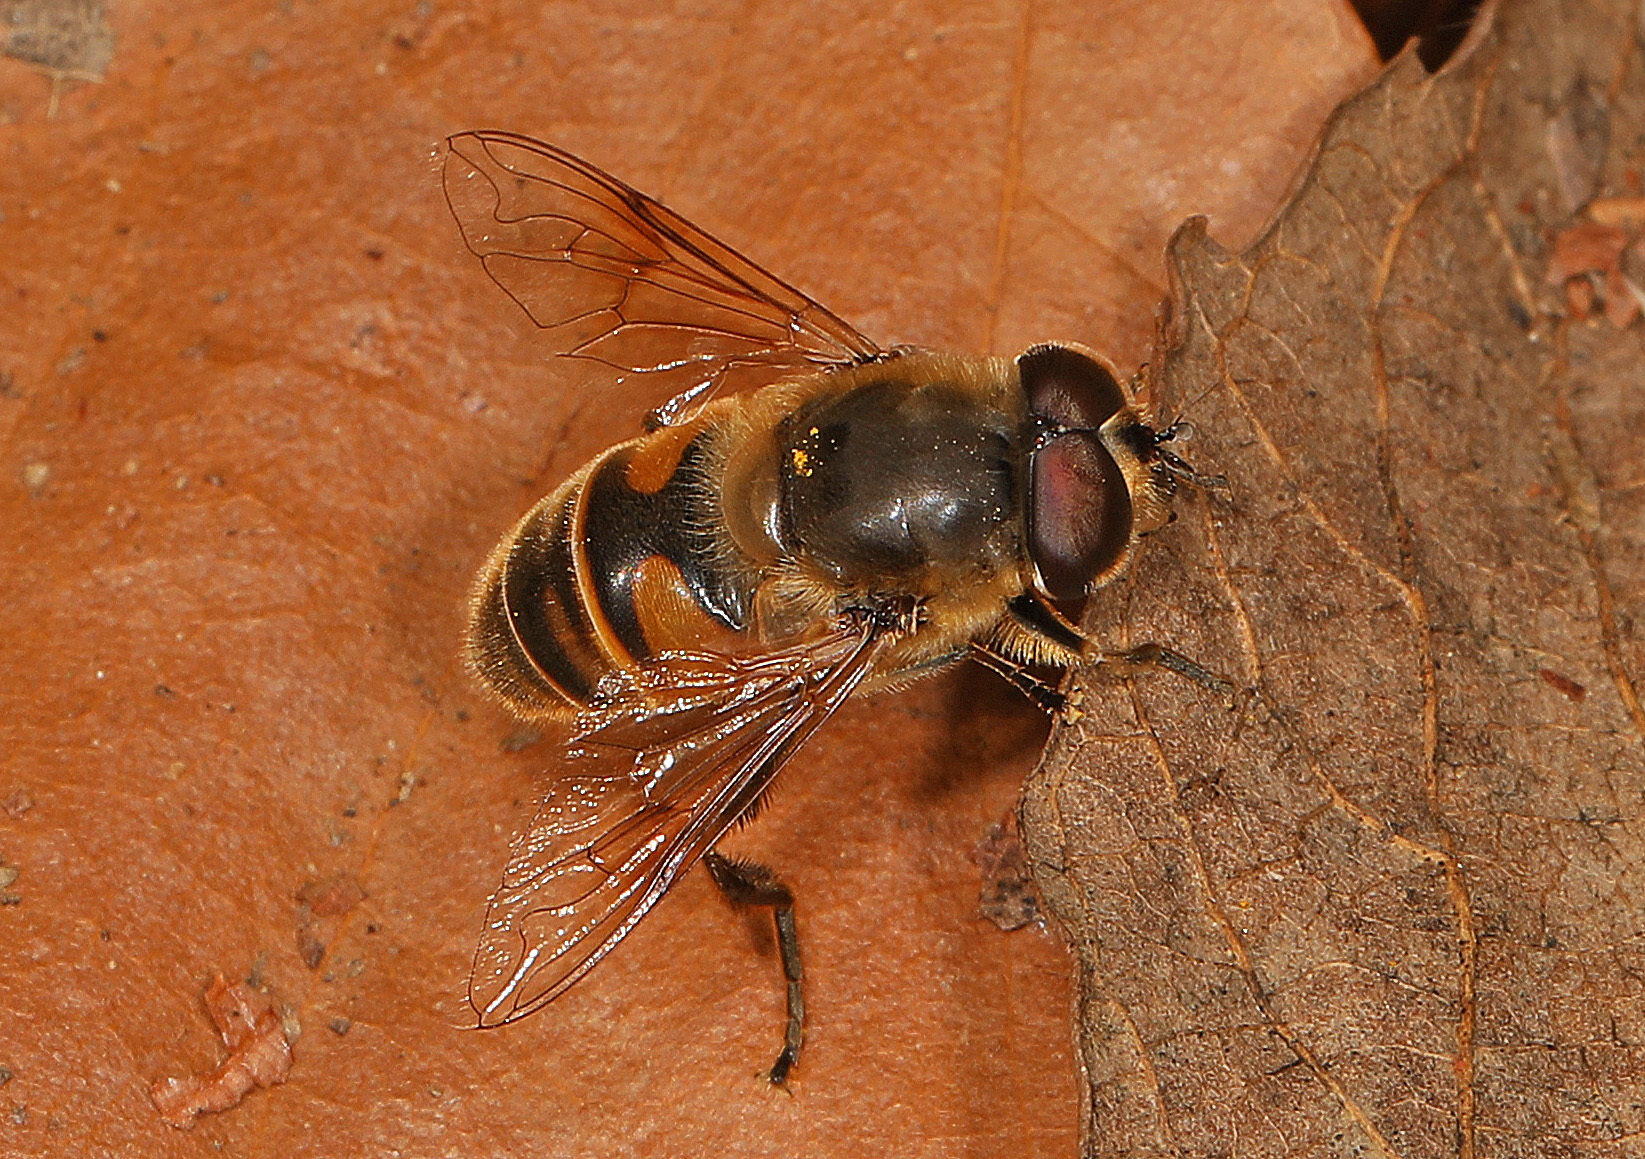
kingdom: Animalia
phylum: Arthropoda
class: Insecta
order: Diptera
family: Syrphidae
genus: Eristalis
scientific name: Eristalis tenax
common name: Drone fly
